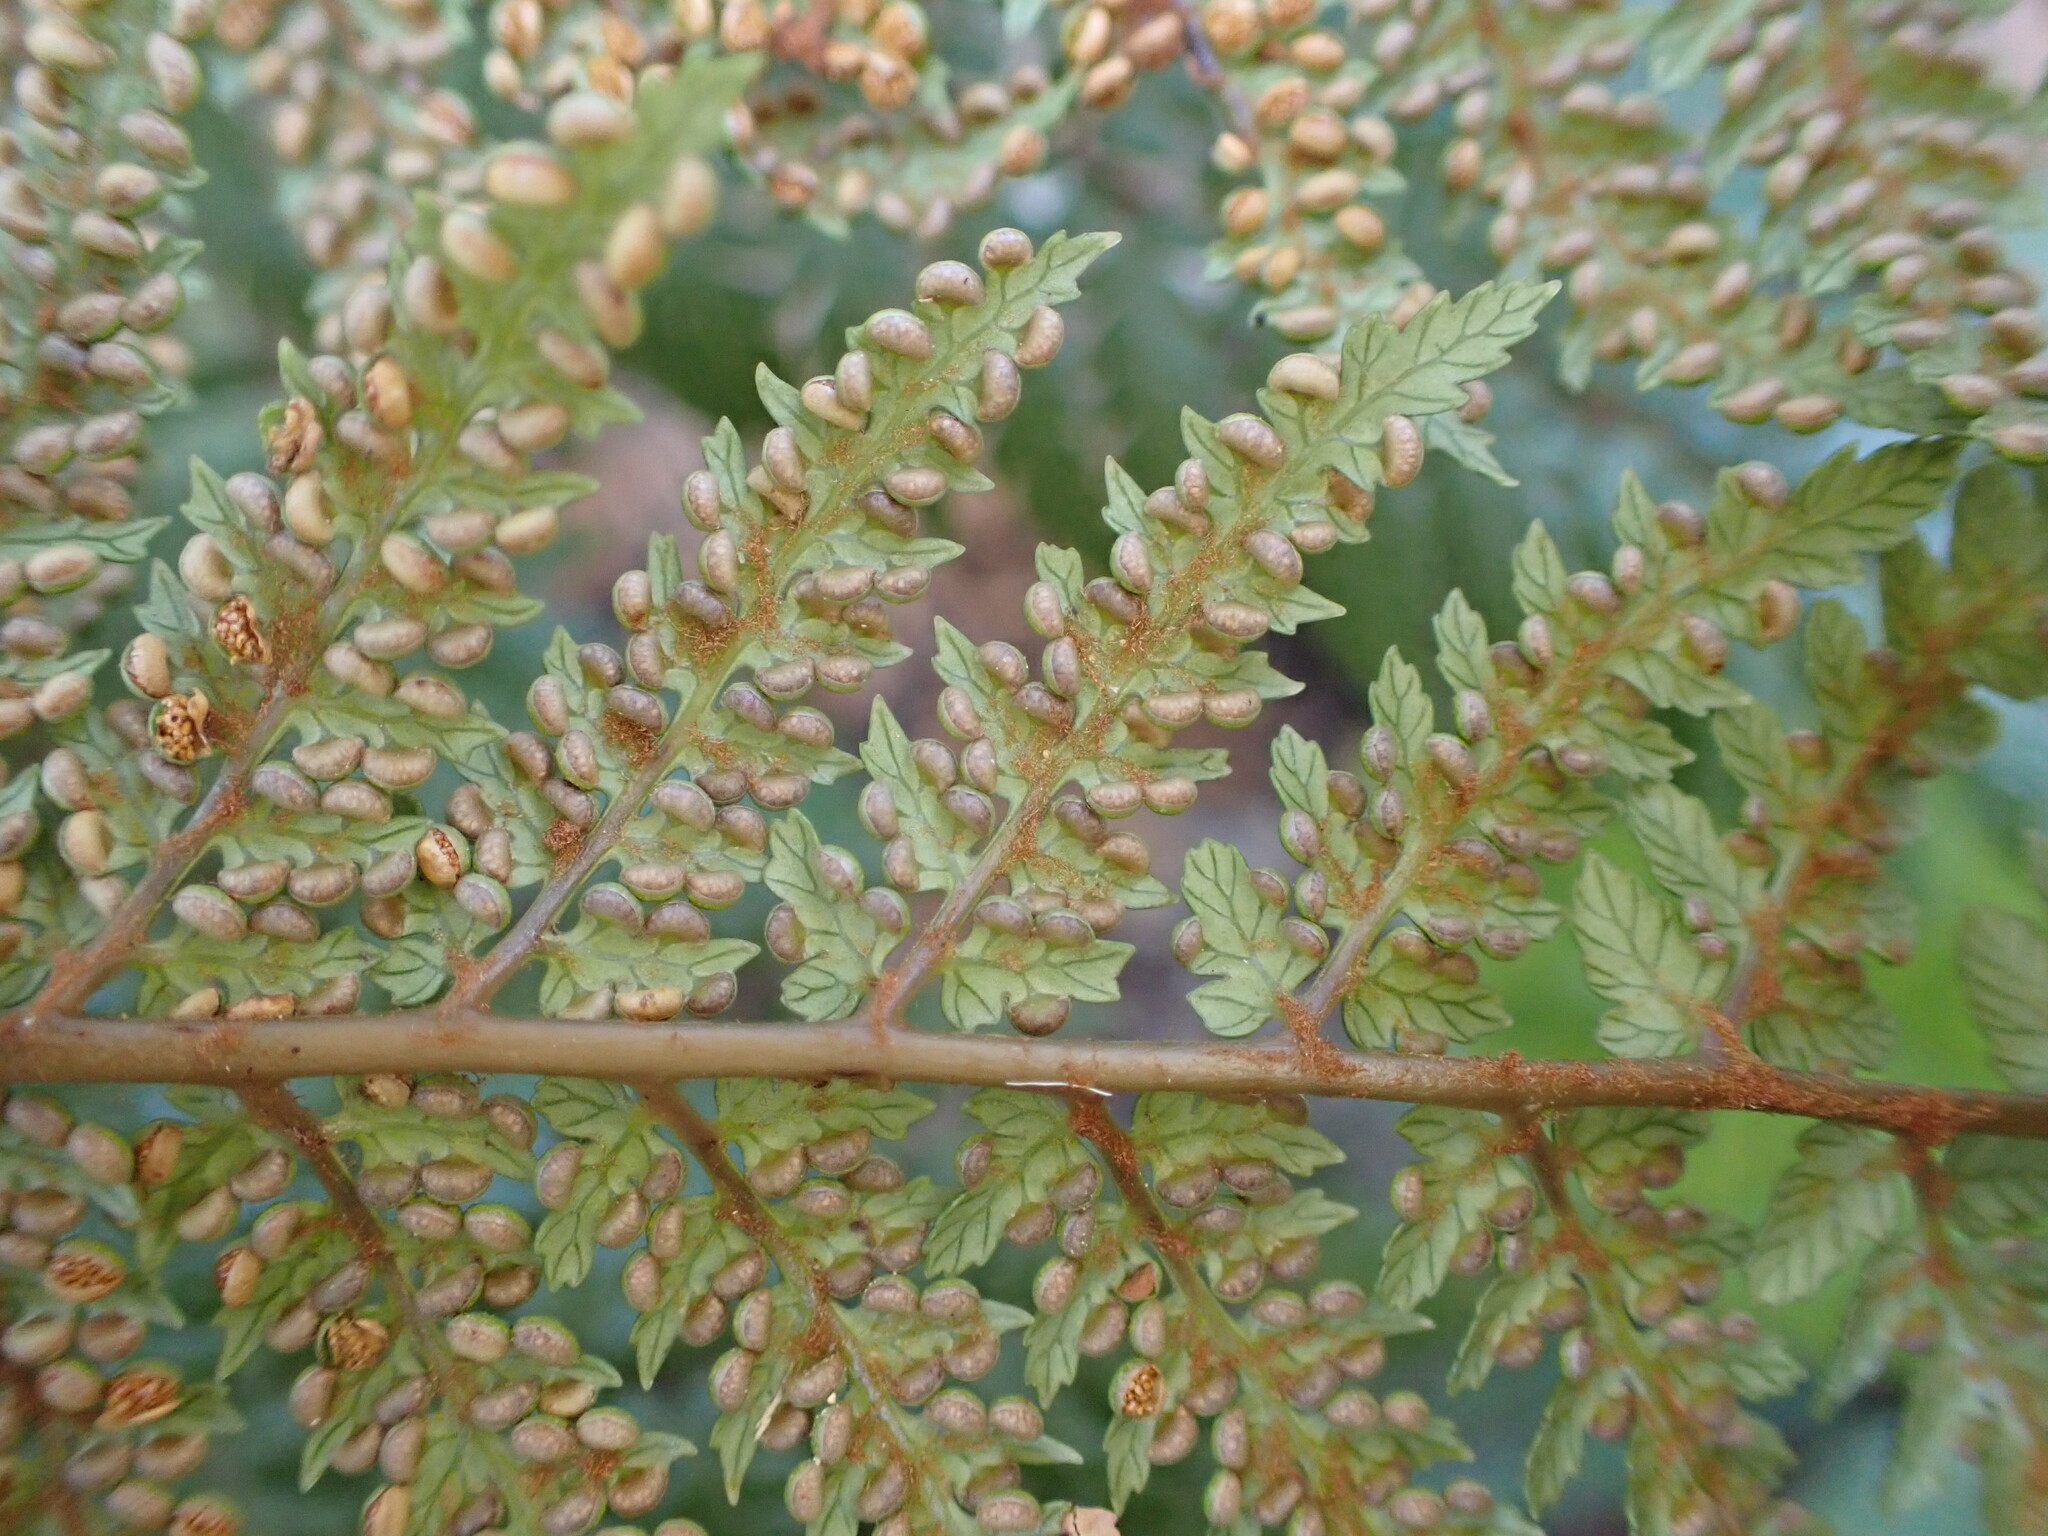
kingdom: Plantae
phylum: Tracheophyta
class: Polypodiopsida
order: Cyatheales
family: Dicksoniaceae
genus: Dicksonia
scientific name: Dicksonia lanata
